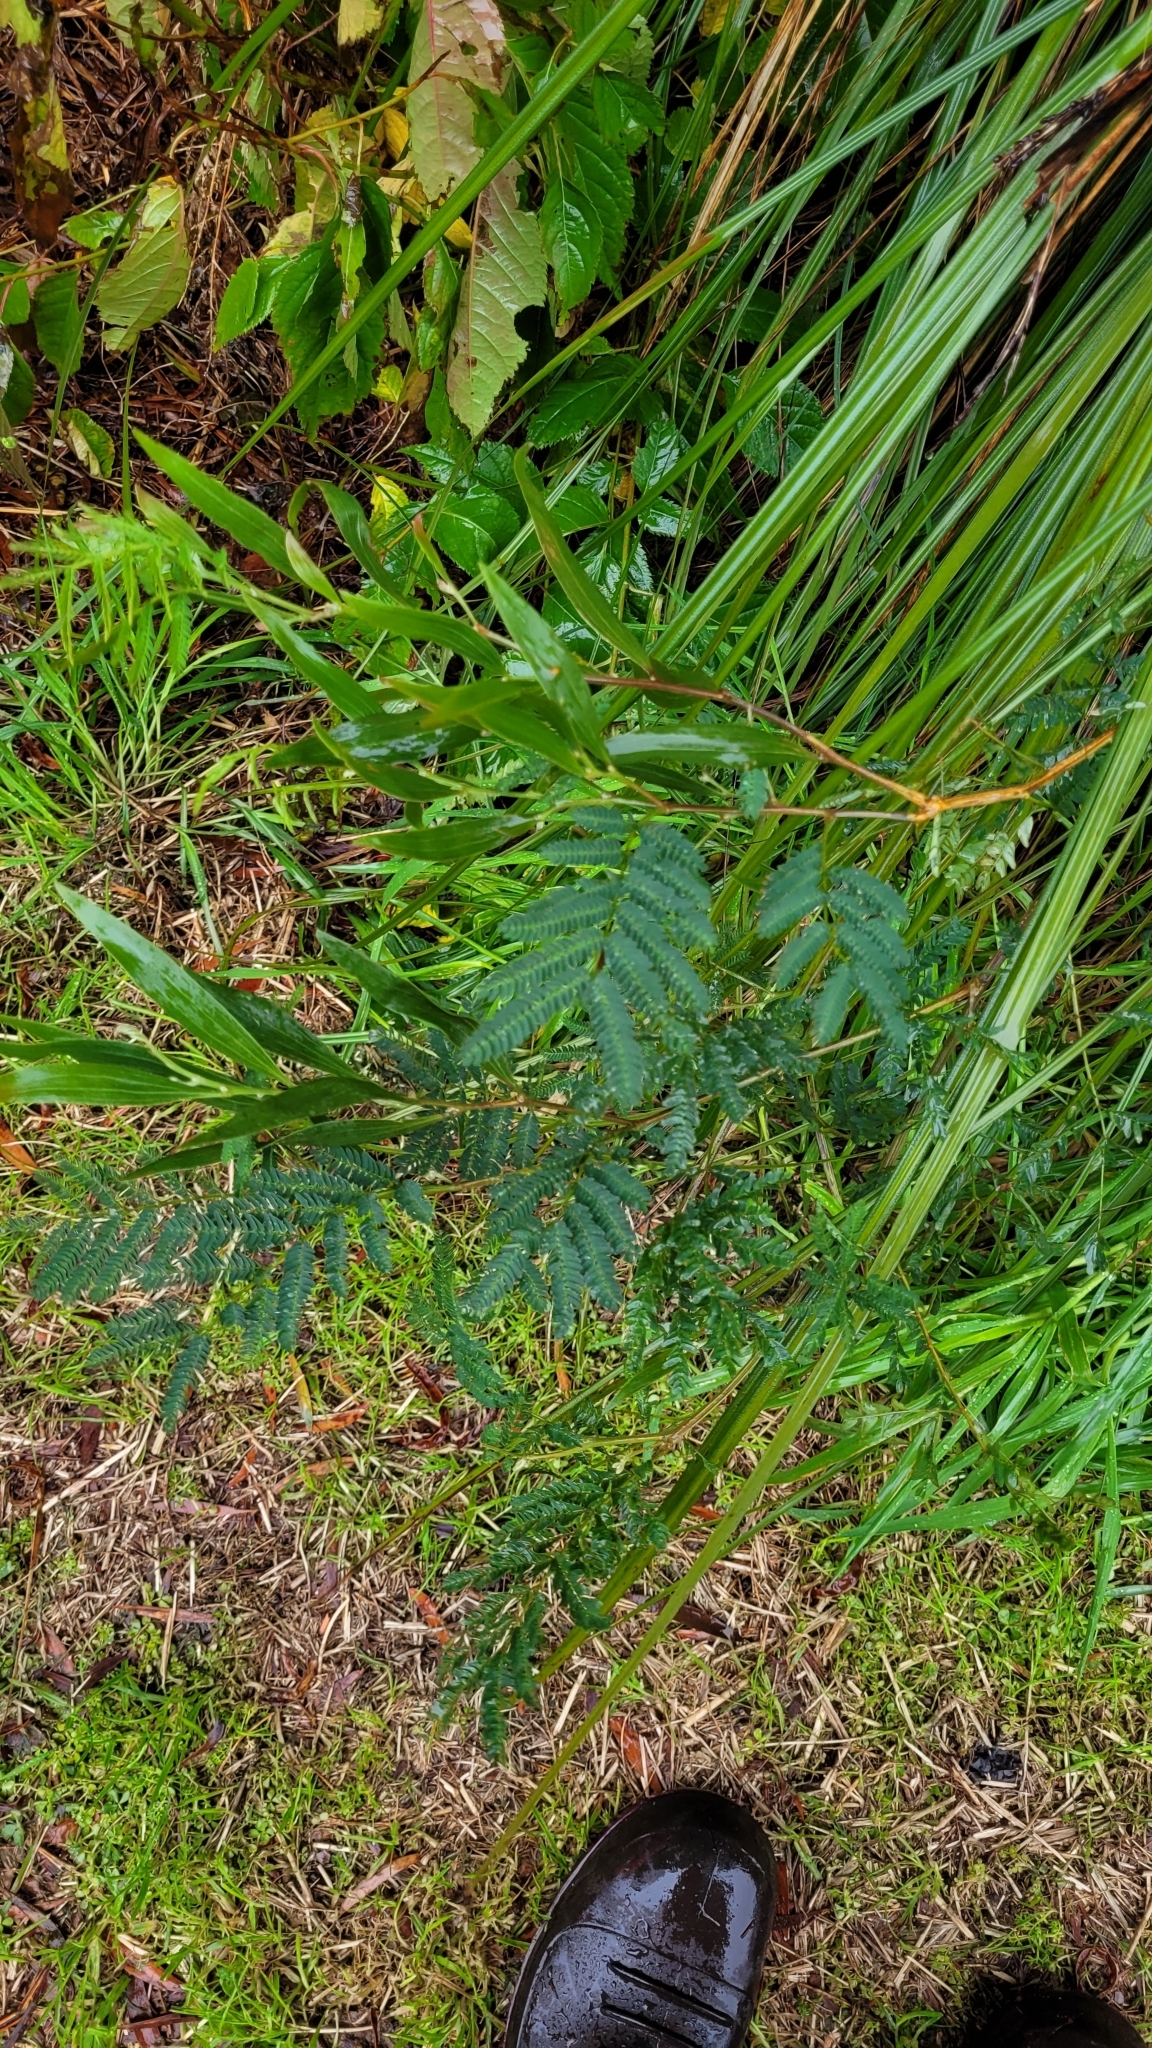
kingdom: Plantae
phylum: Tracheophyta
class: Magnoliopsida
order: Fabales
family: Fabaceae
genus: Acacia
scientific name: Acacia melanoxylon
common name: Blackwood
